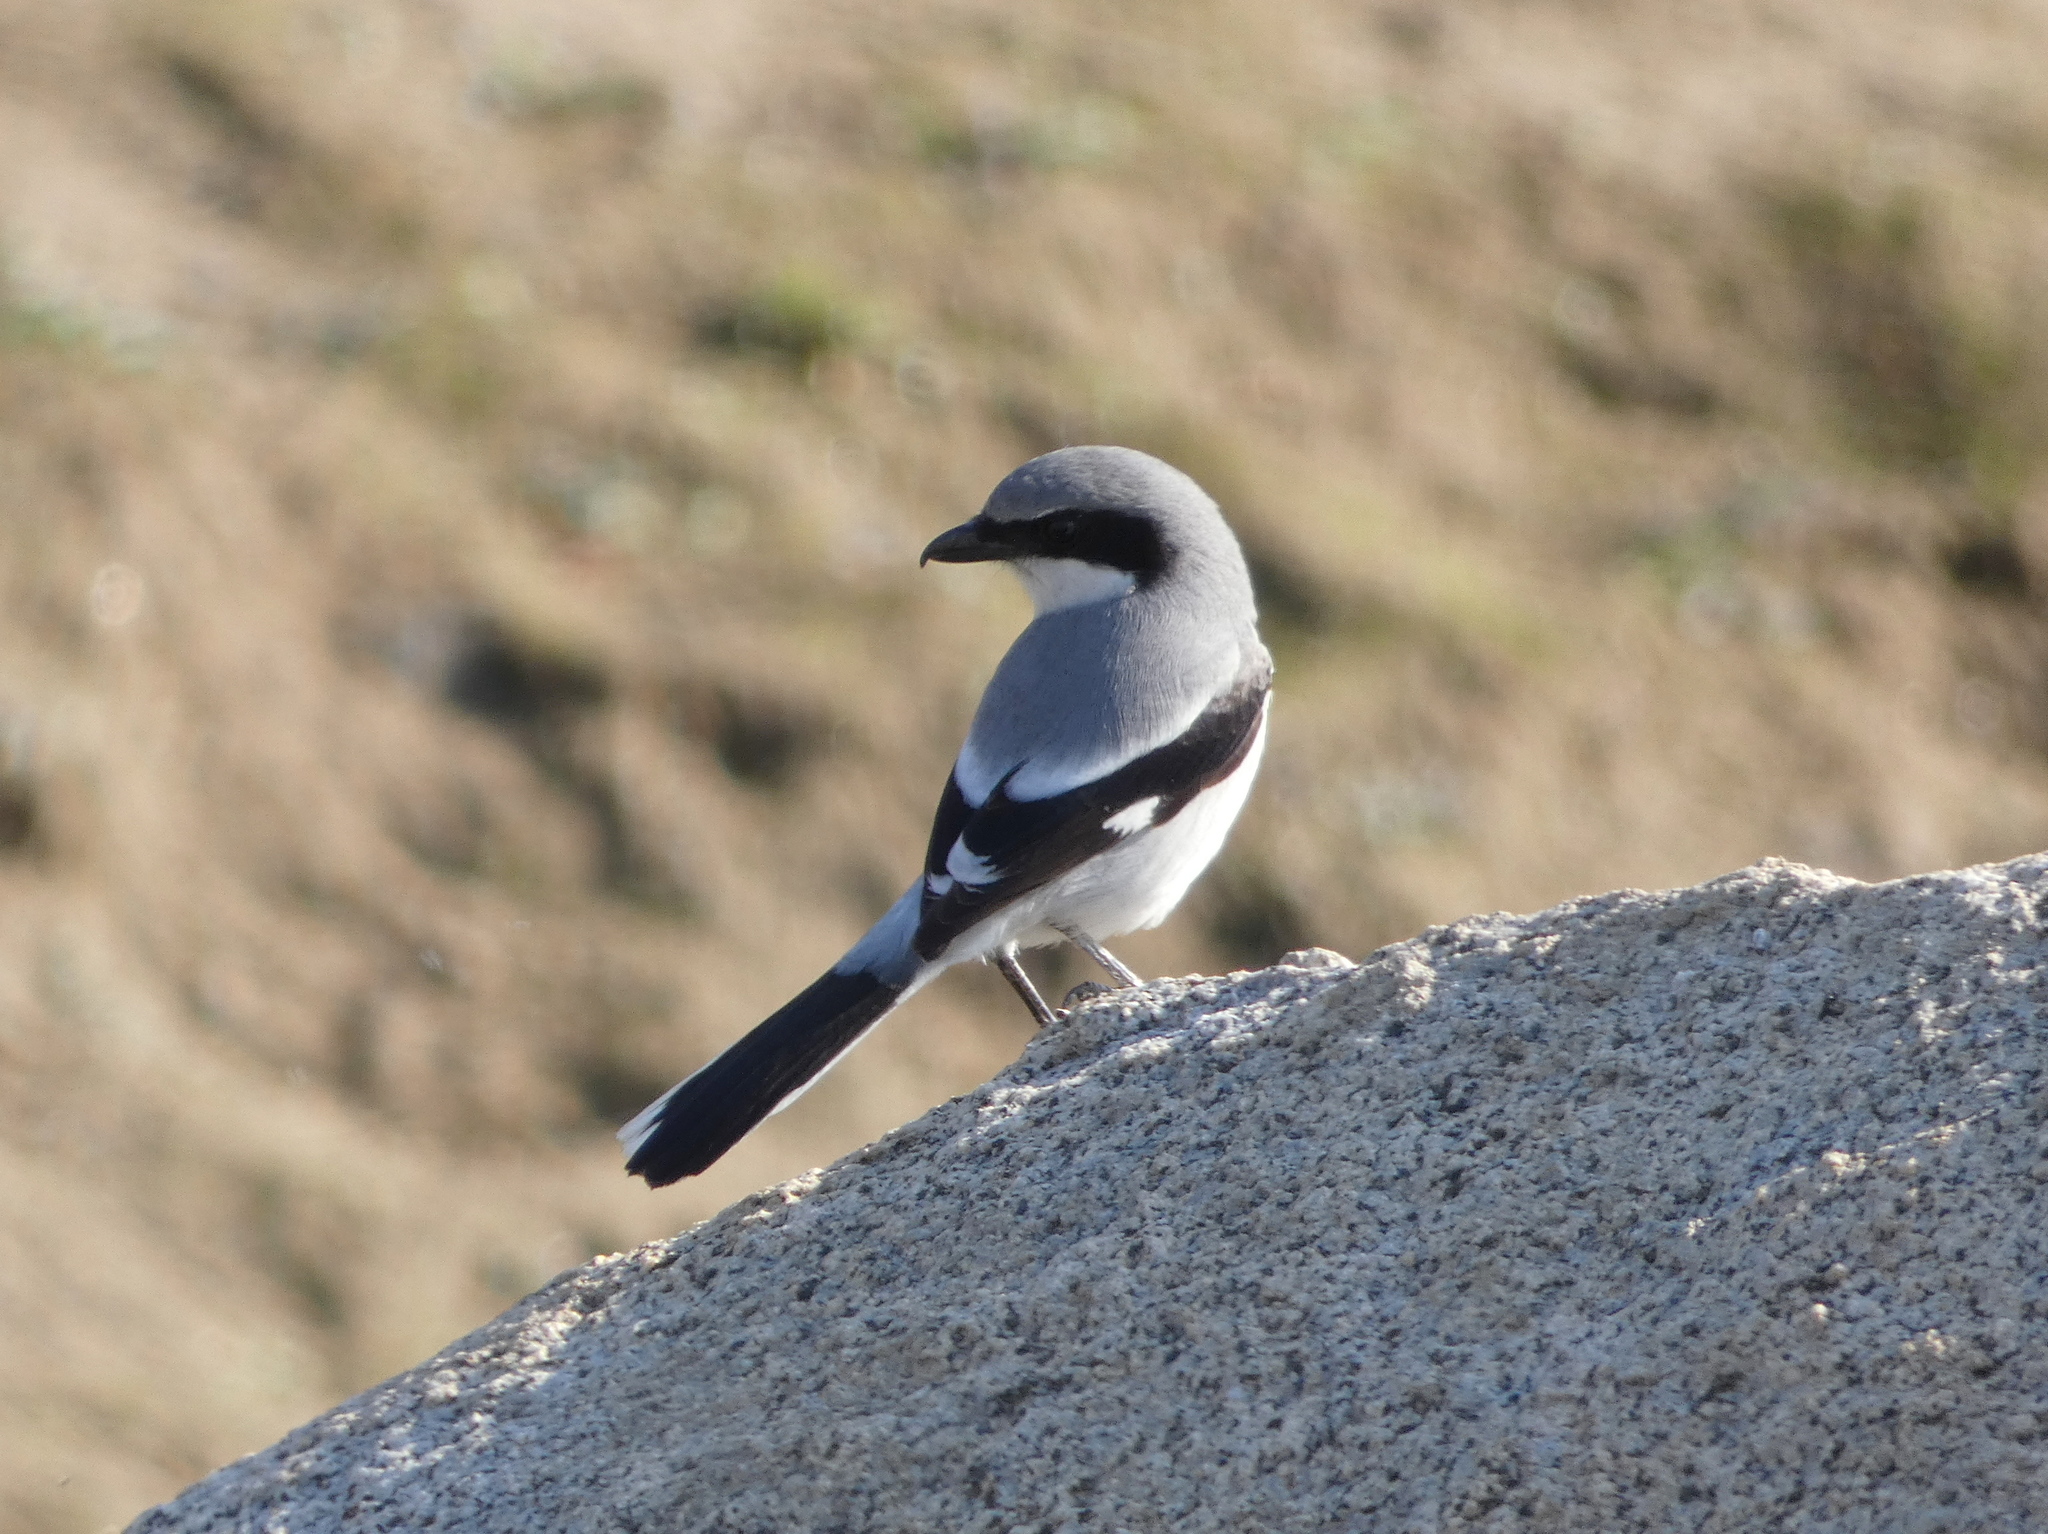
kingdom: Animalia
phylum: Chordata
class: Aves
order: Passeriformes
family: Laniidae
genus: Lanius
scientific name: Lanius ludovicianus
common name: Loggerhead shrike
